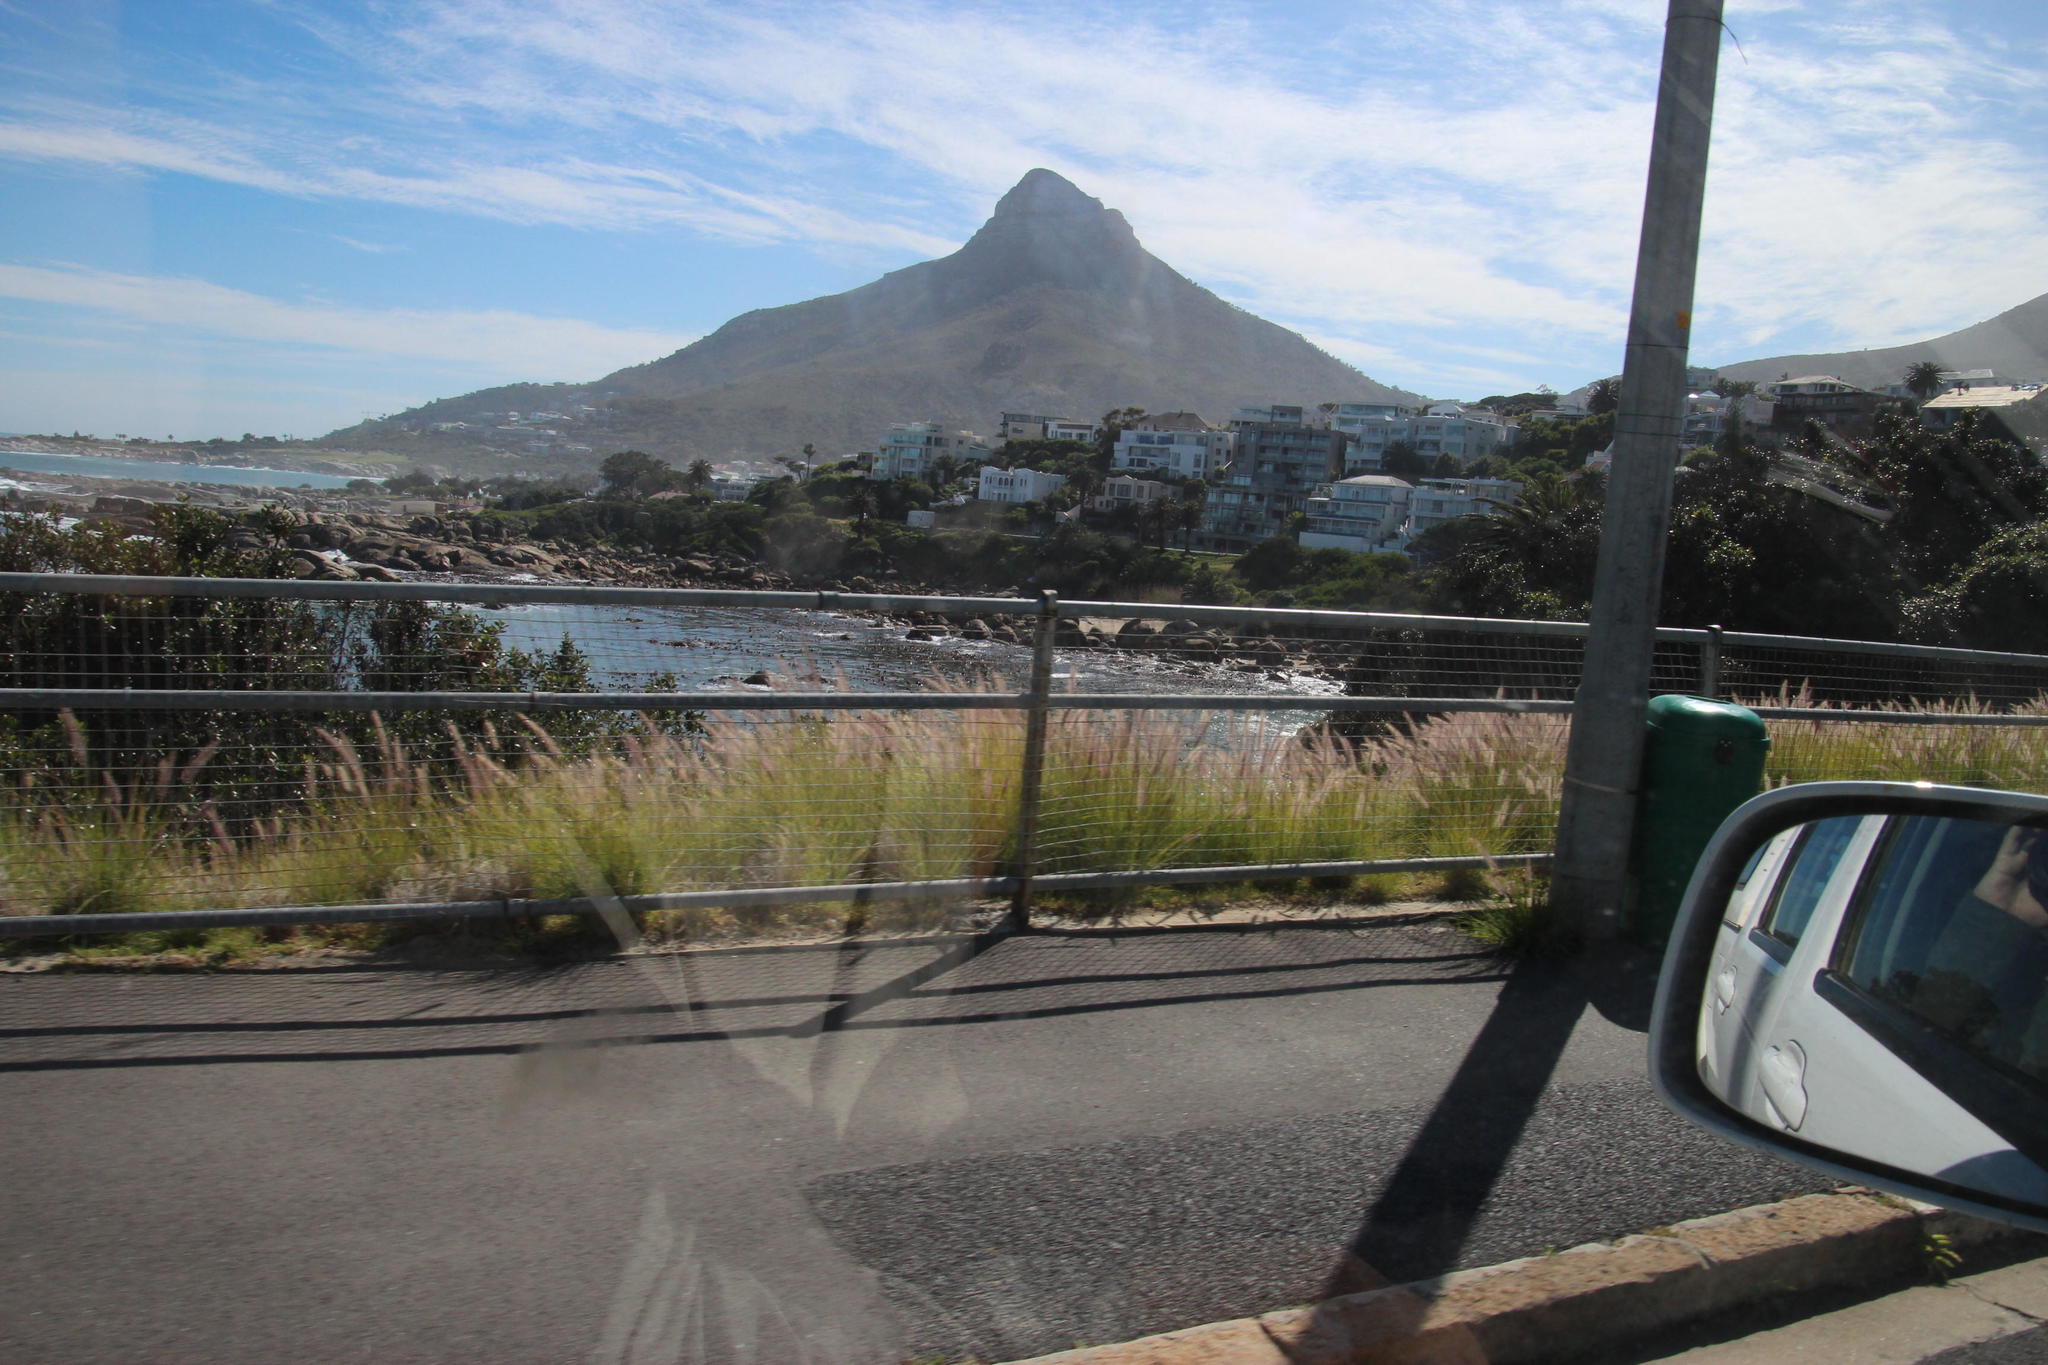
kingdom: Plantae
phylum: Tracheophyta
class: Liliopsida
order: Poales
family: Poaceae
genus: Cenchrus
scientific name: Cenchrus setaceus
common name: Crimson fountaingrass
